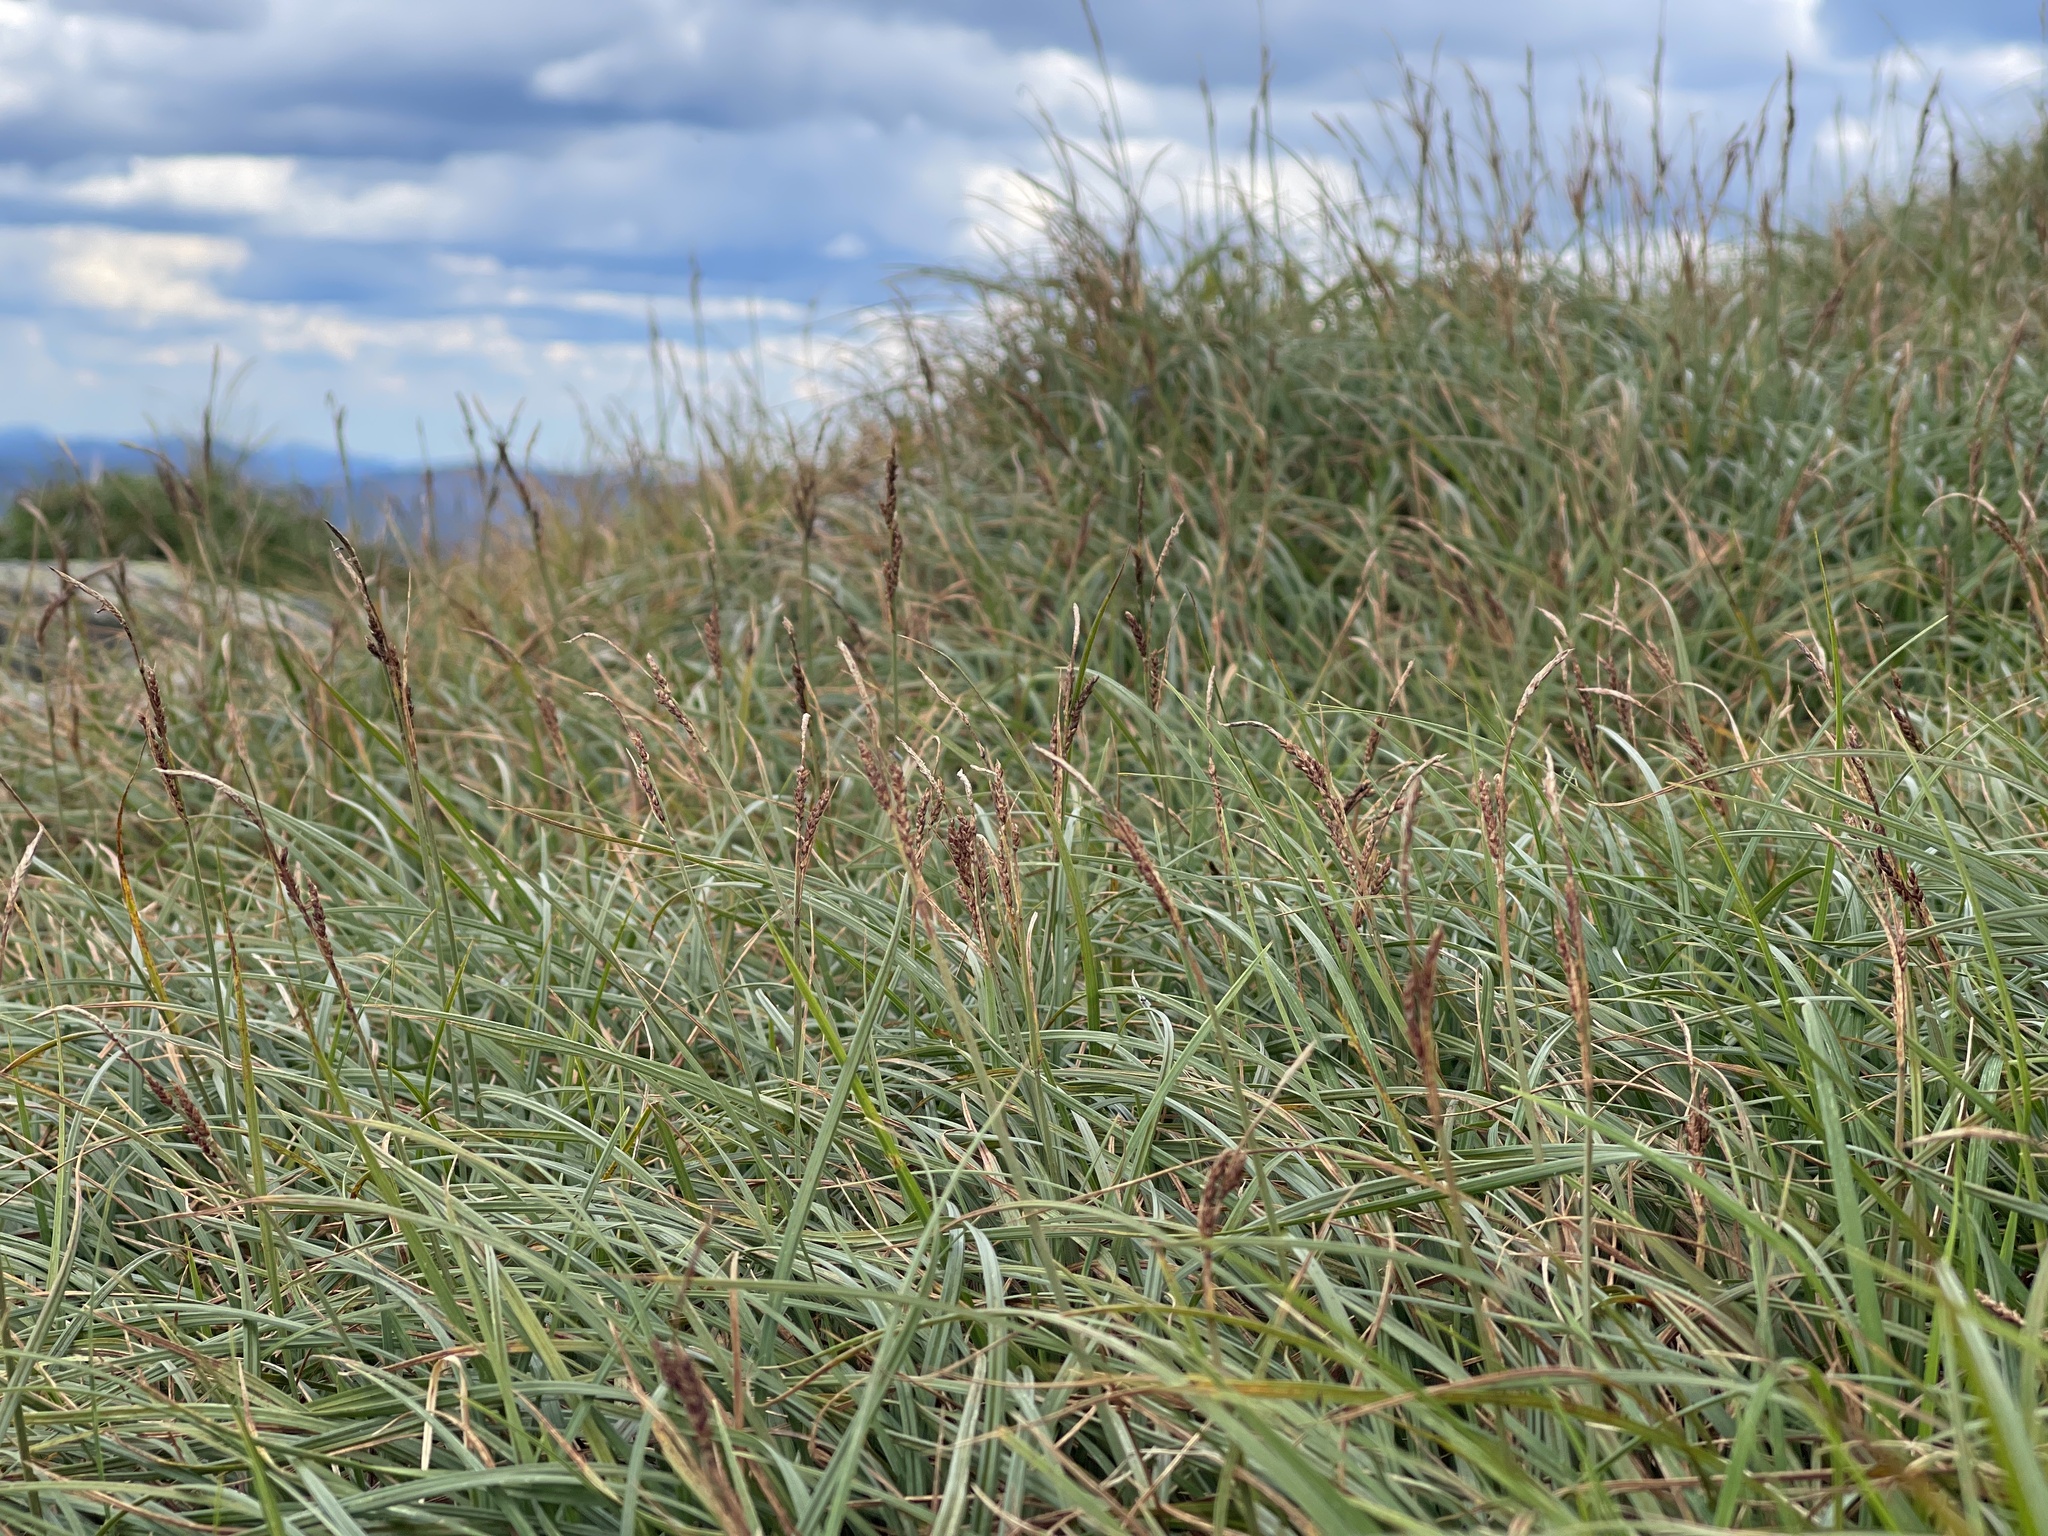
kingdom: Plantae
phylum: Tracheophyta
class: Liliopsida
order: Poales
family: Cyperaceae
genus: Carex
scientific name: Carex bigelowii
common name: Stiff sedge
